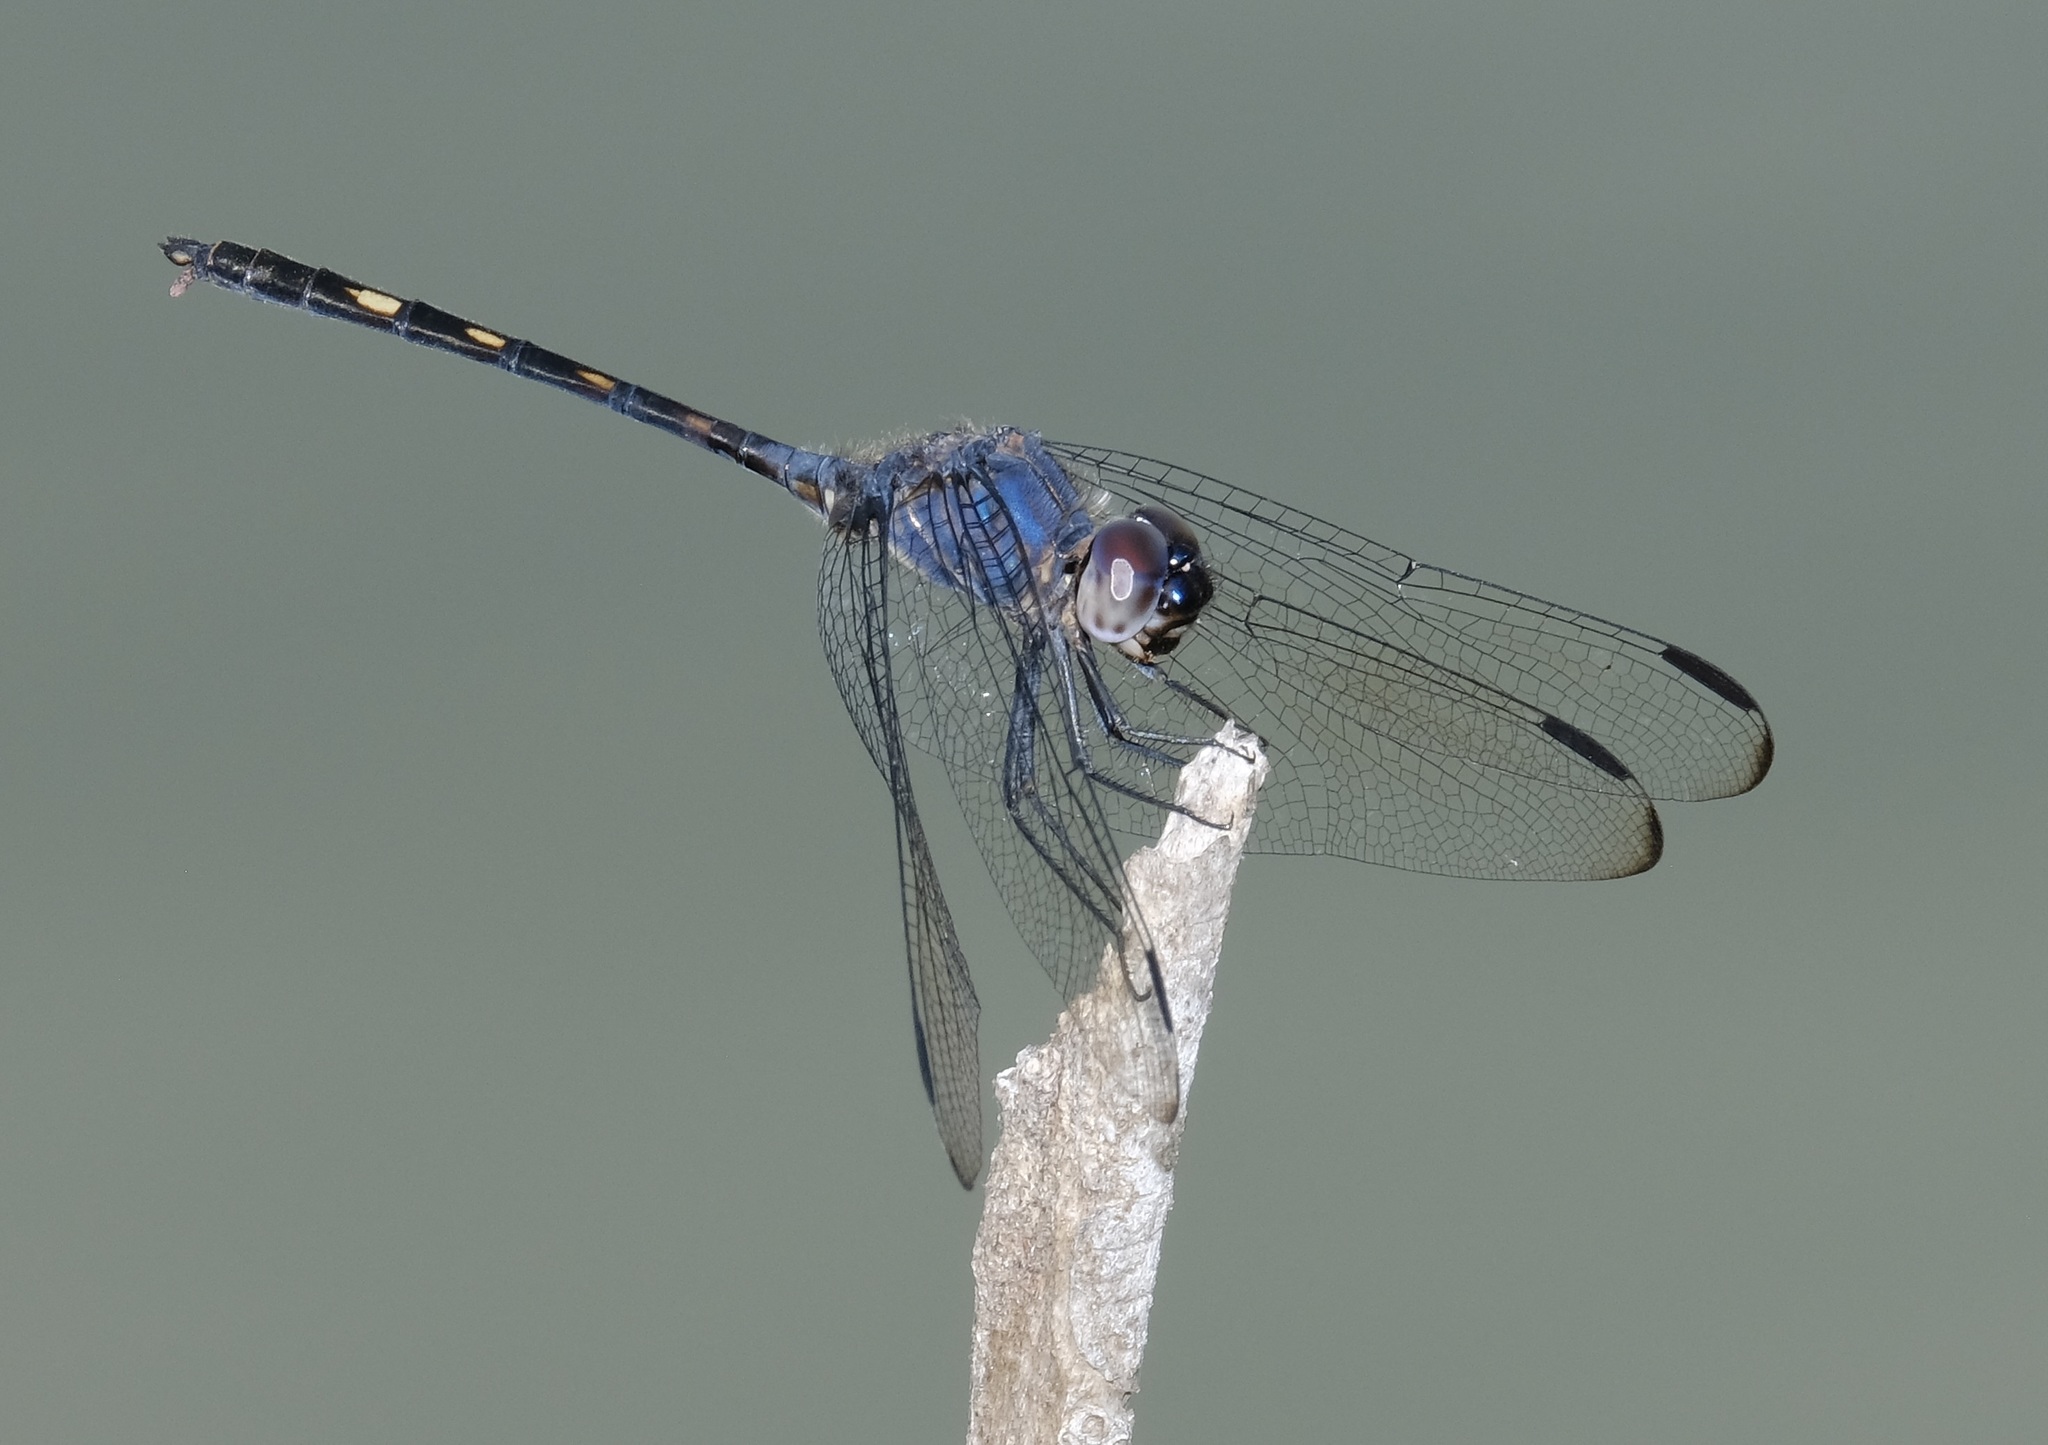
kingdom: Animalia
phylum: Arthropoda
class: Insecta
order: Odonata
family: Libellulidae
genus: Dythemis
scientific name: Dythemis nigrescens
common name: Black setwing
